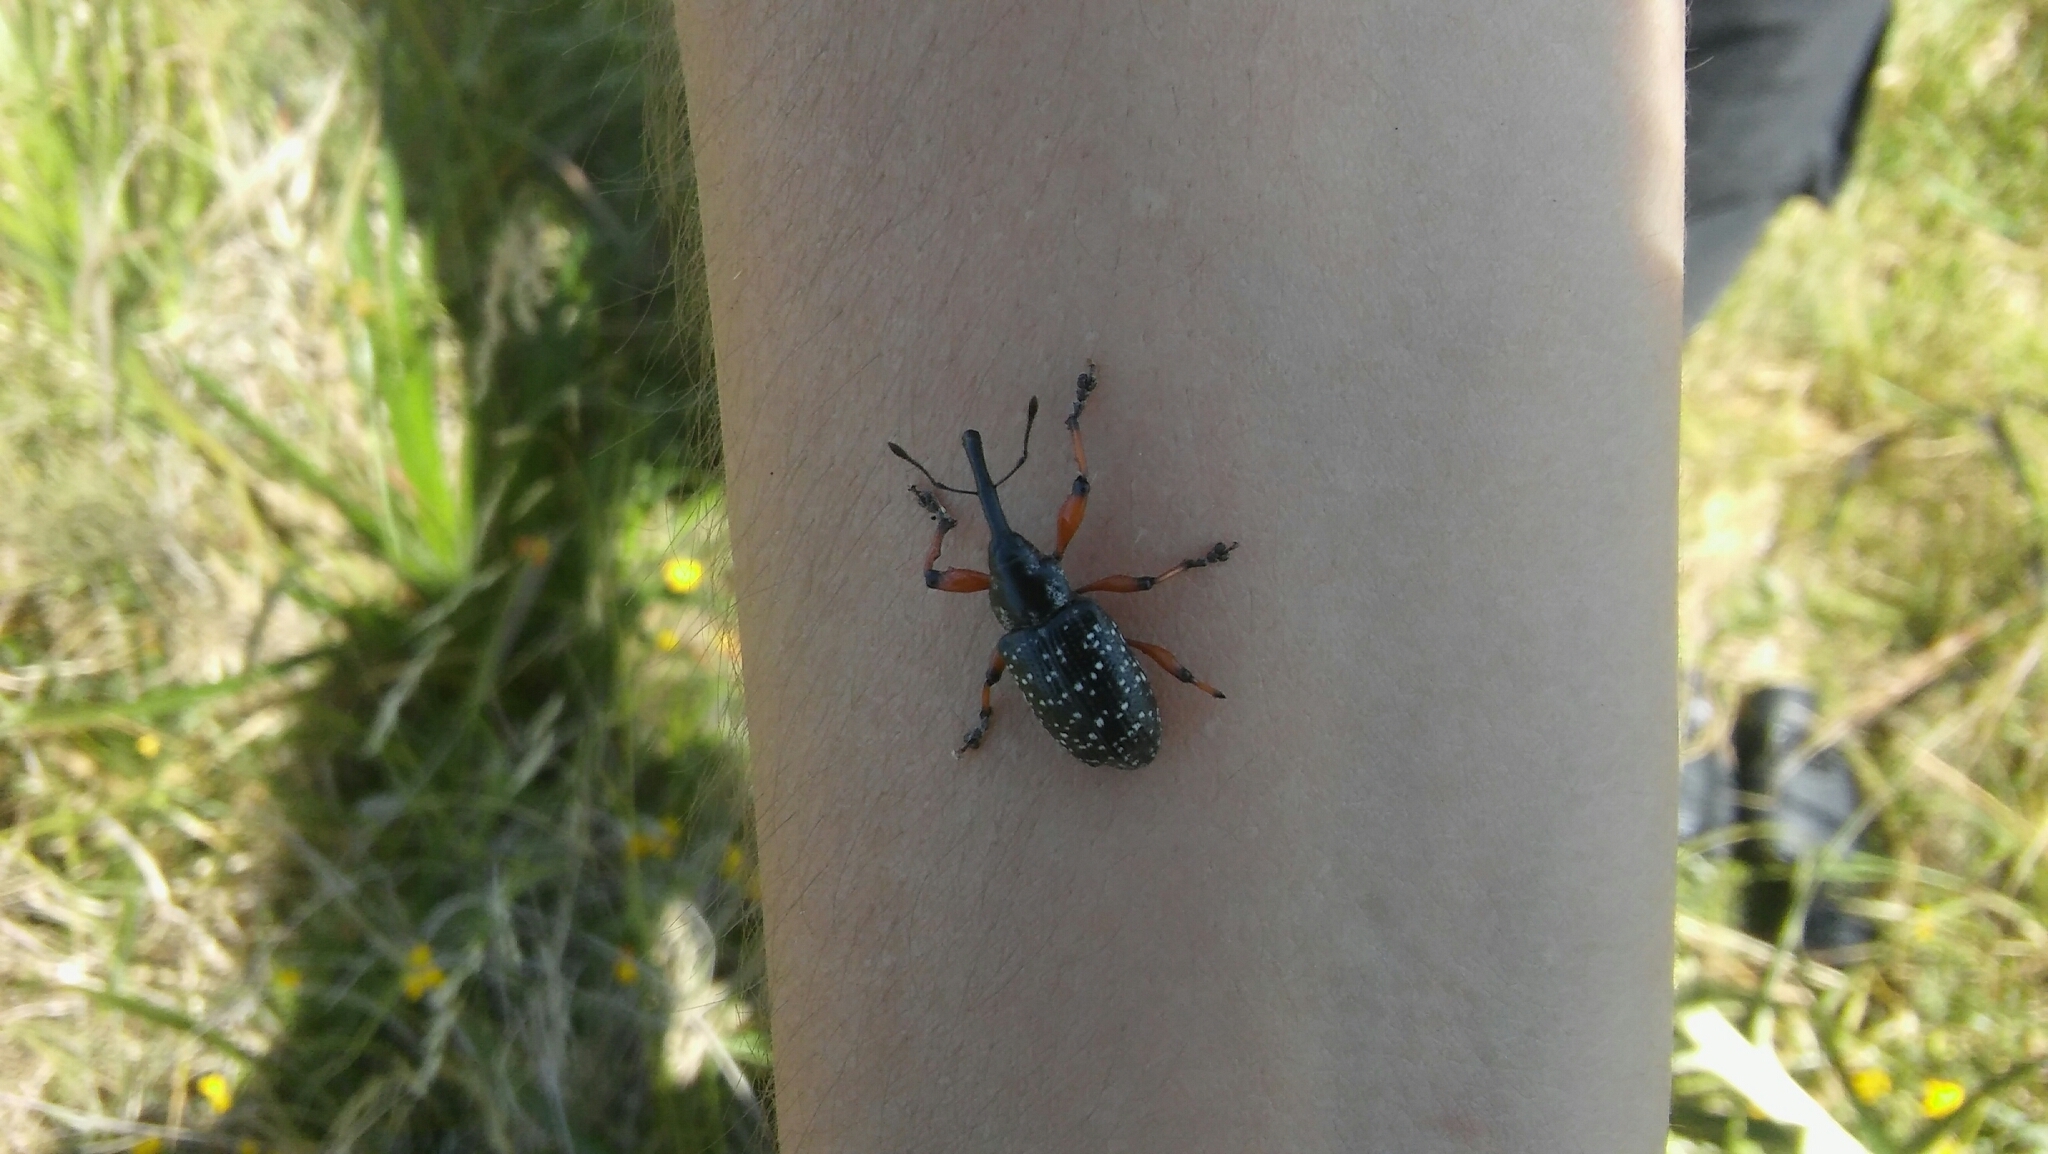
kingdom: Animalia
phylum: Arthropoda
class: Insecta
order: Coleoptera
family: Curculionidae
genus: Heilipodus
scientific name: Heilipodus erythropus
